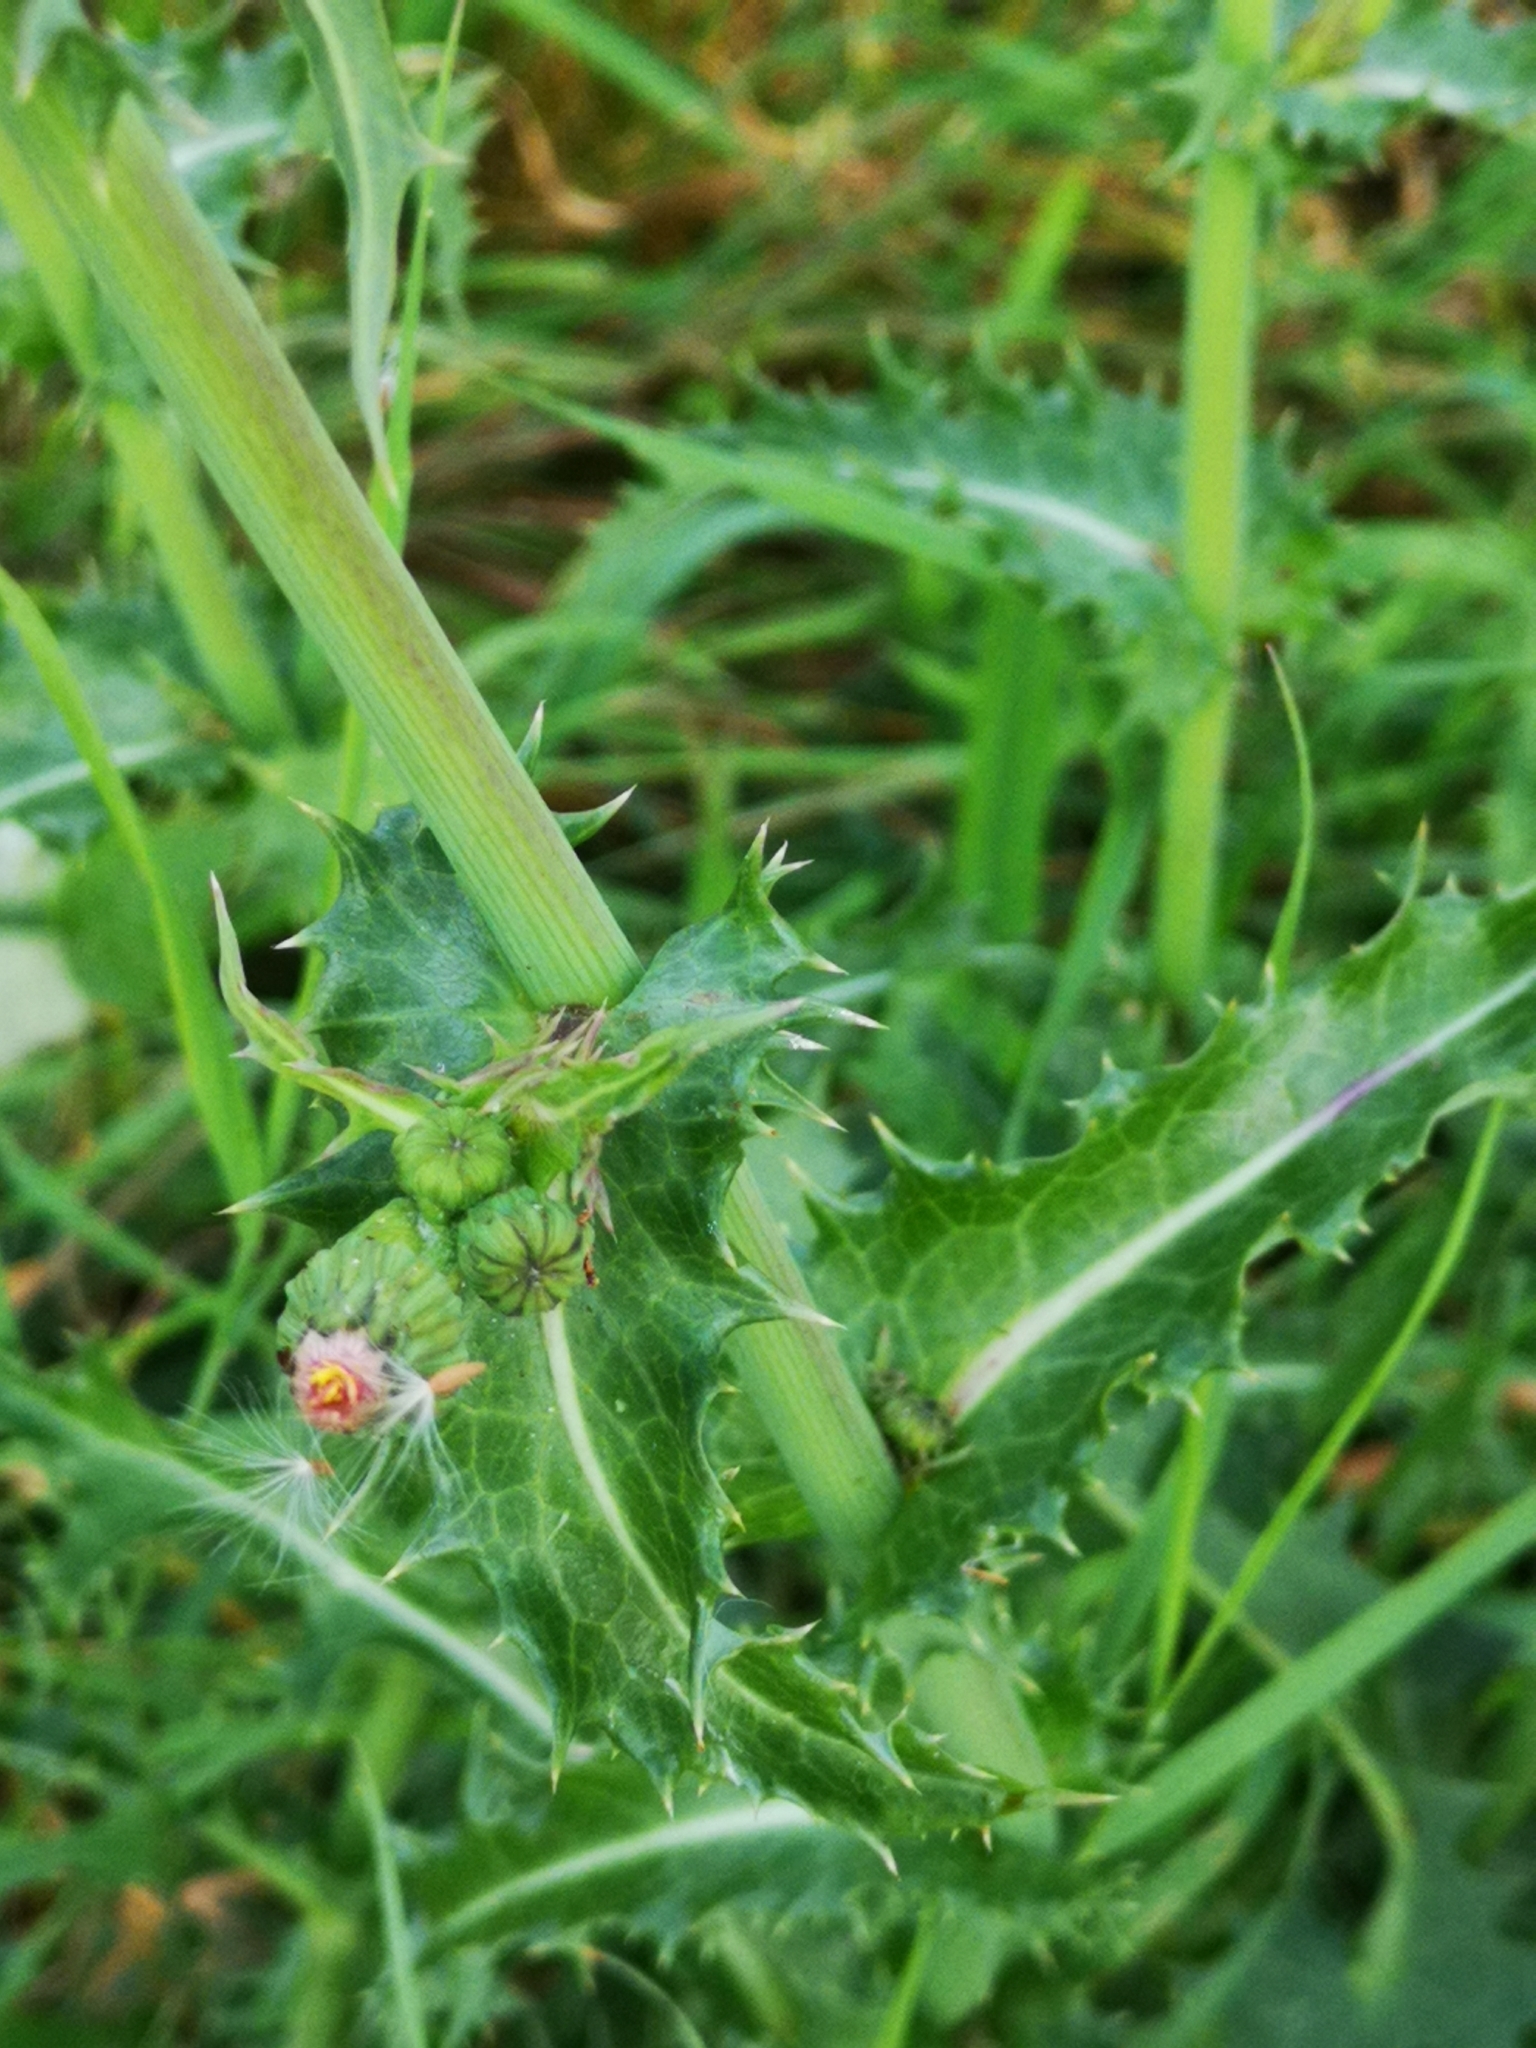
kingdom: Plantae
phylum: Tracheophyta
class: Magnoliopsida
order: Asterales
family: Asteraceae
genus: Sonchus
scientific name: Sonchus asper
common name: Prickly sow-thistle
